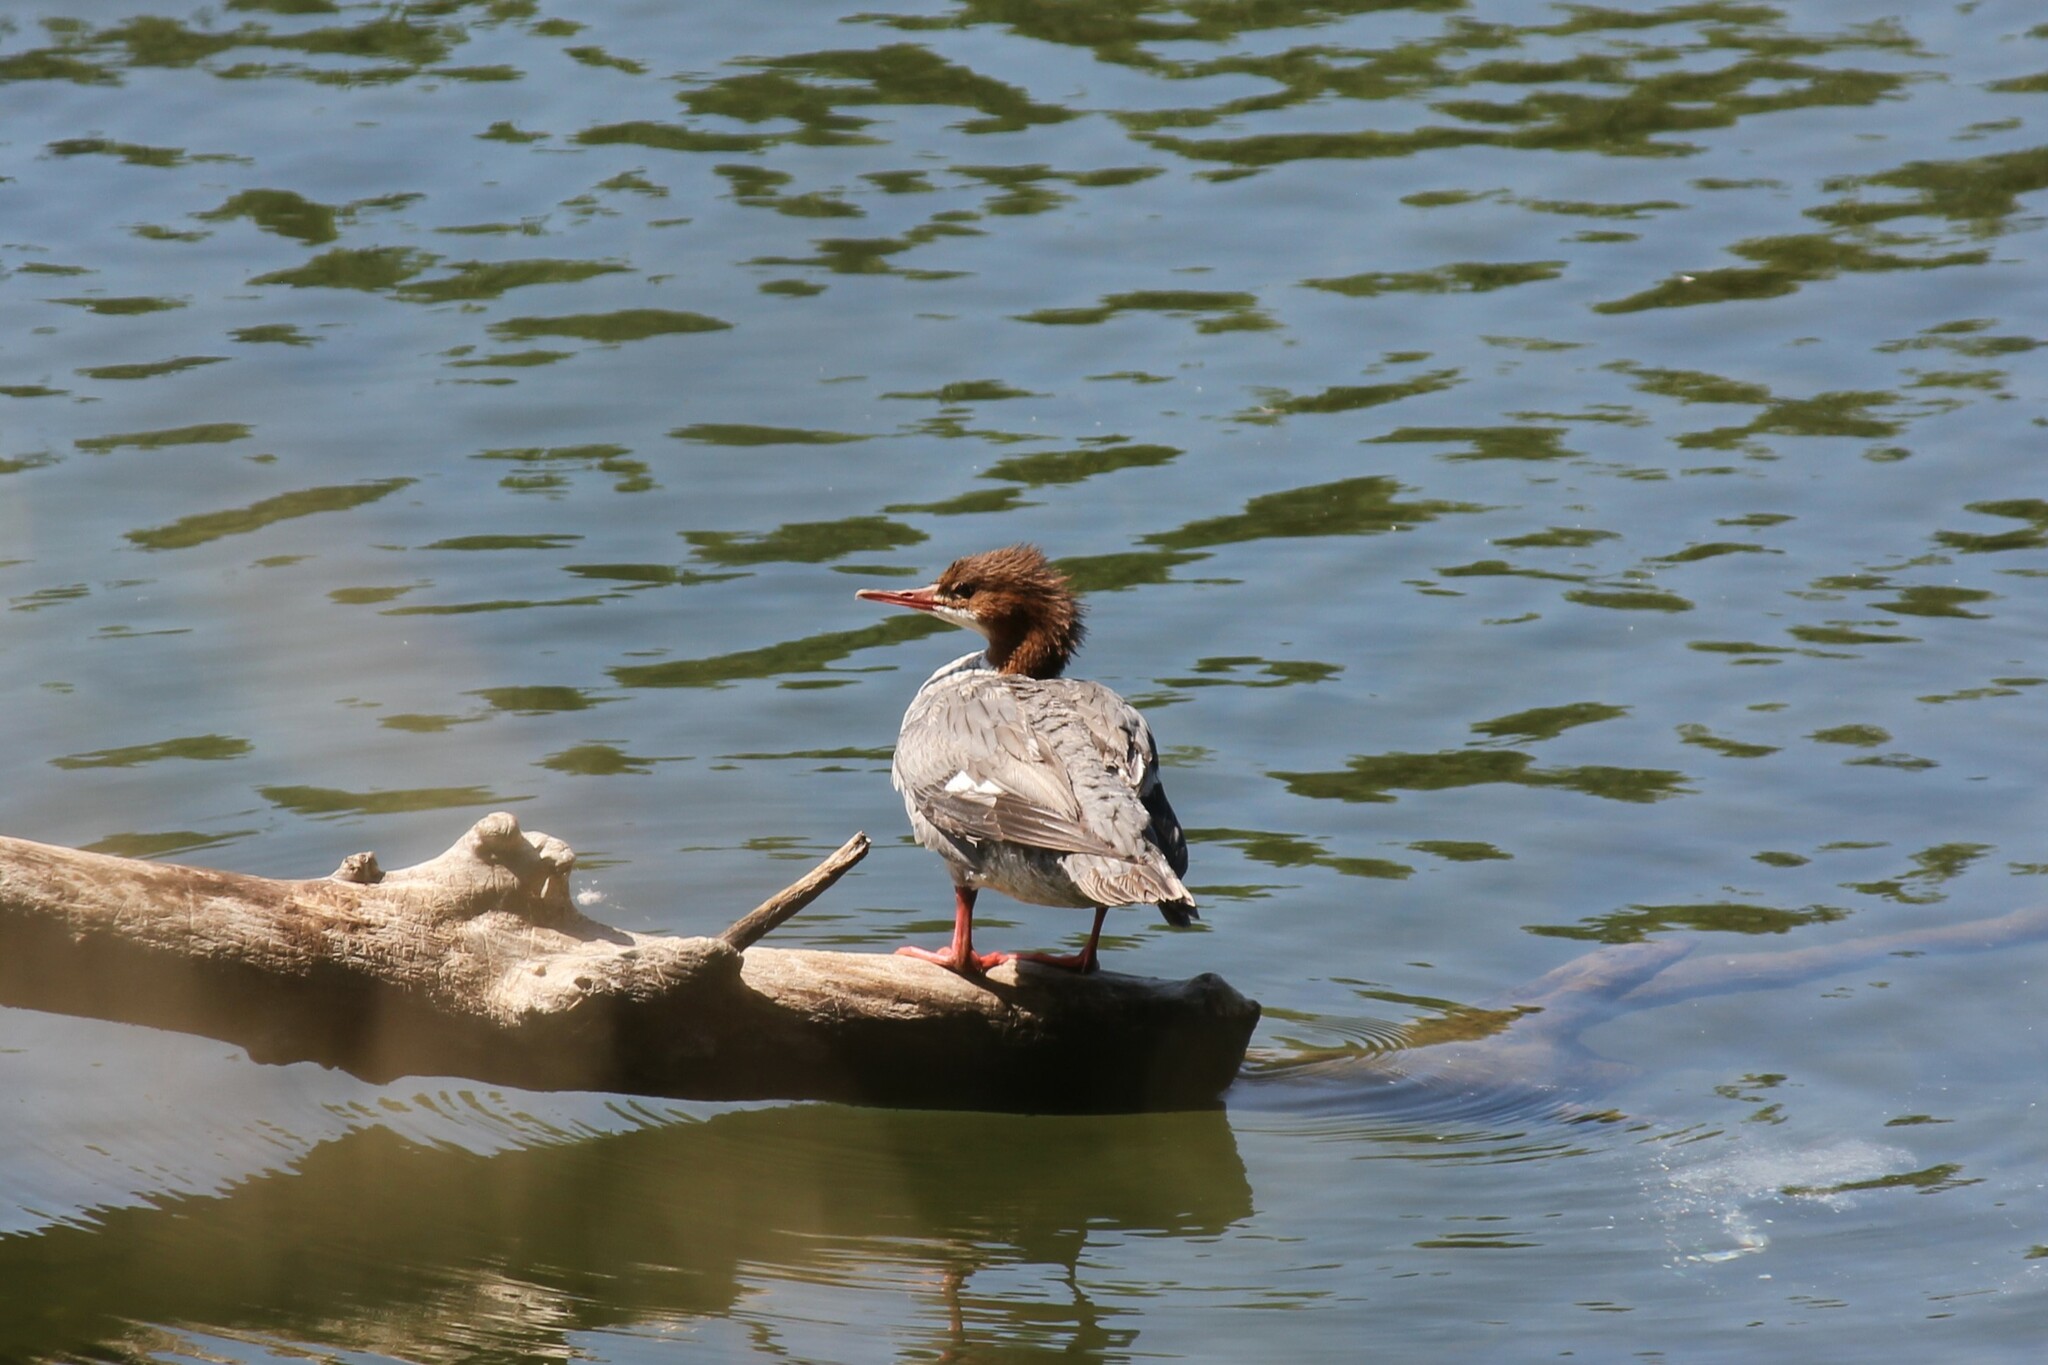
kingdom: Animalia
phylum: Chordata
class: Aves
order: Anseriformes
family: Anatidae
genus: Mergus
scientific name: Mergus merganser
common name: Common merganser
